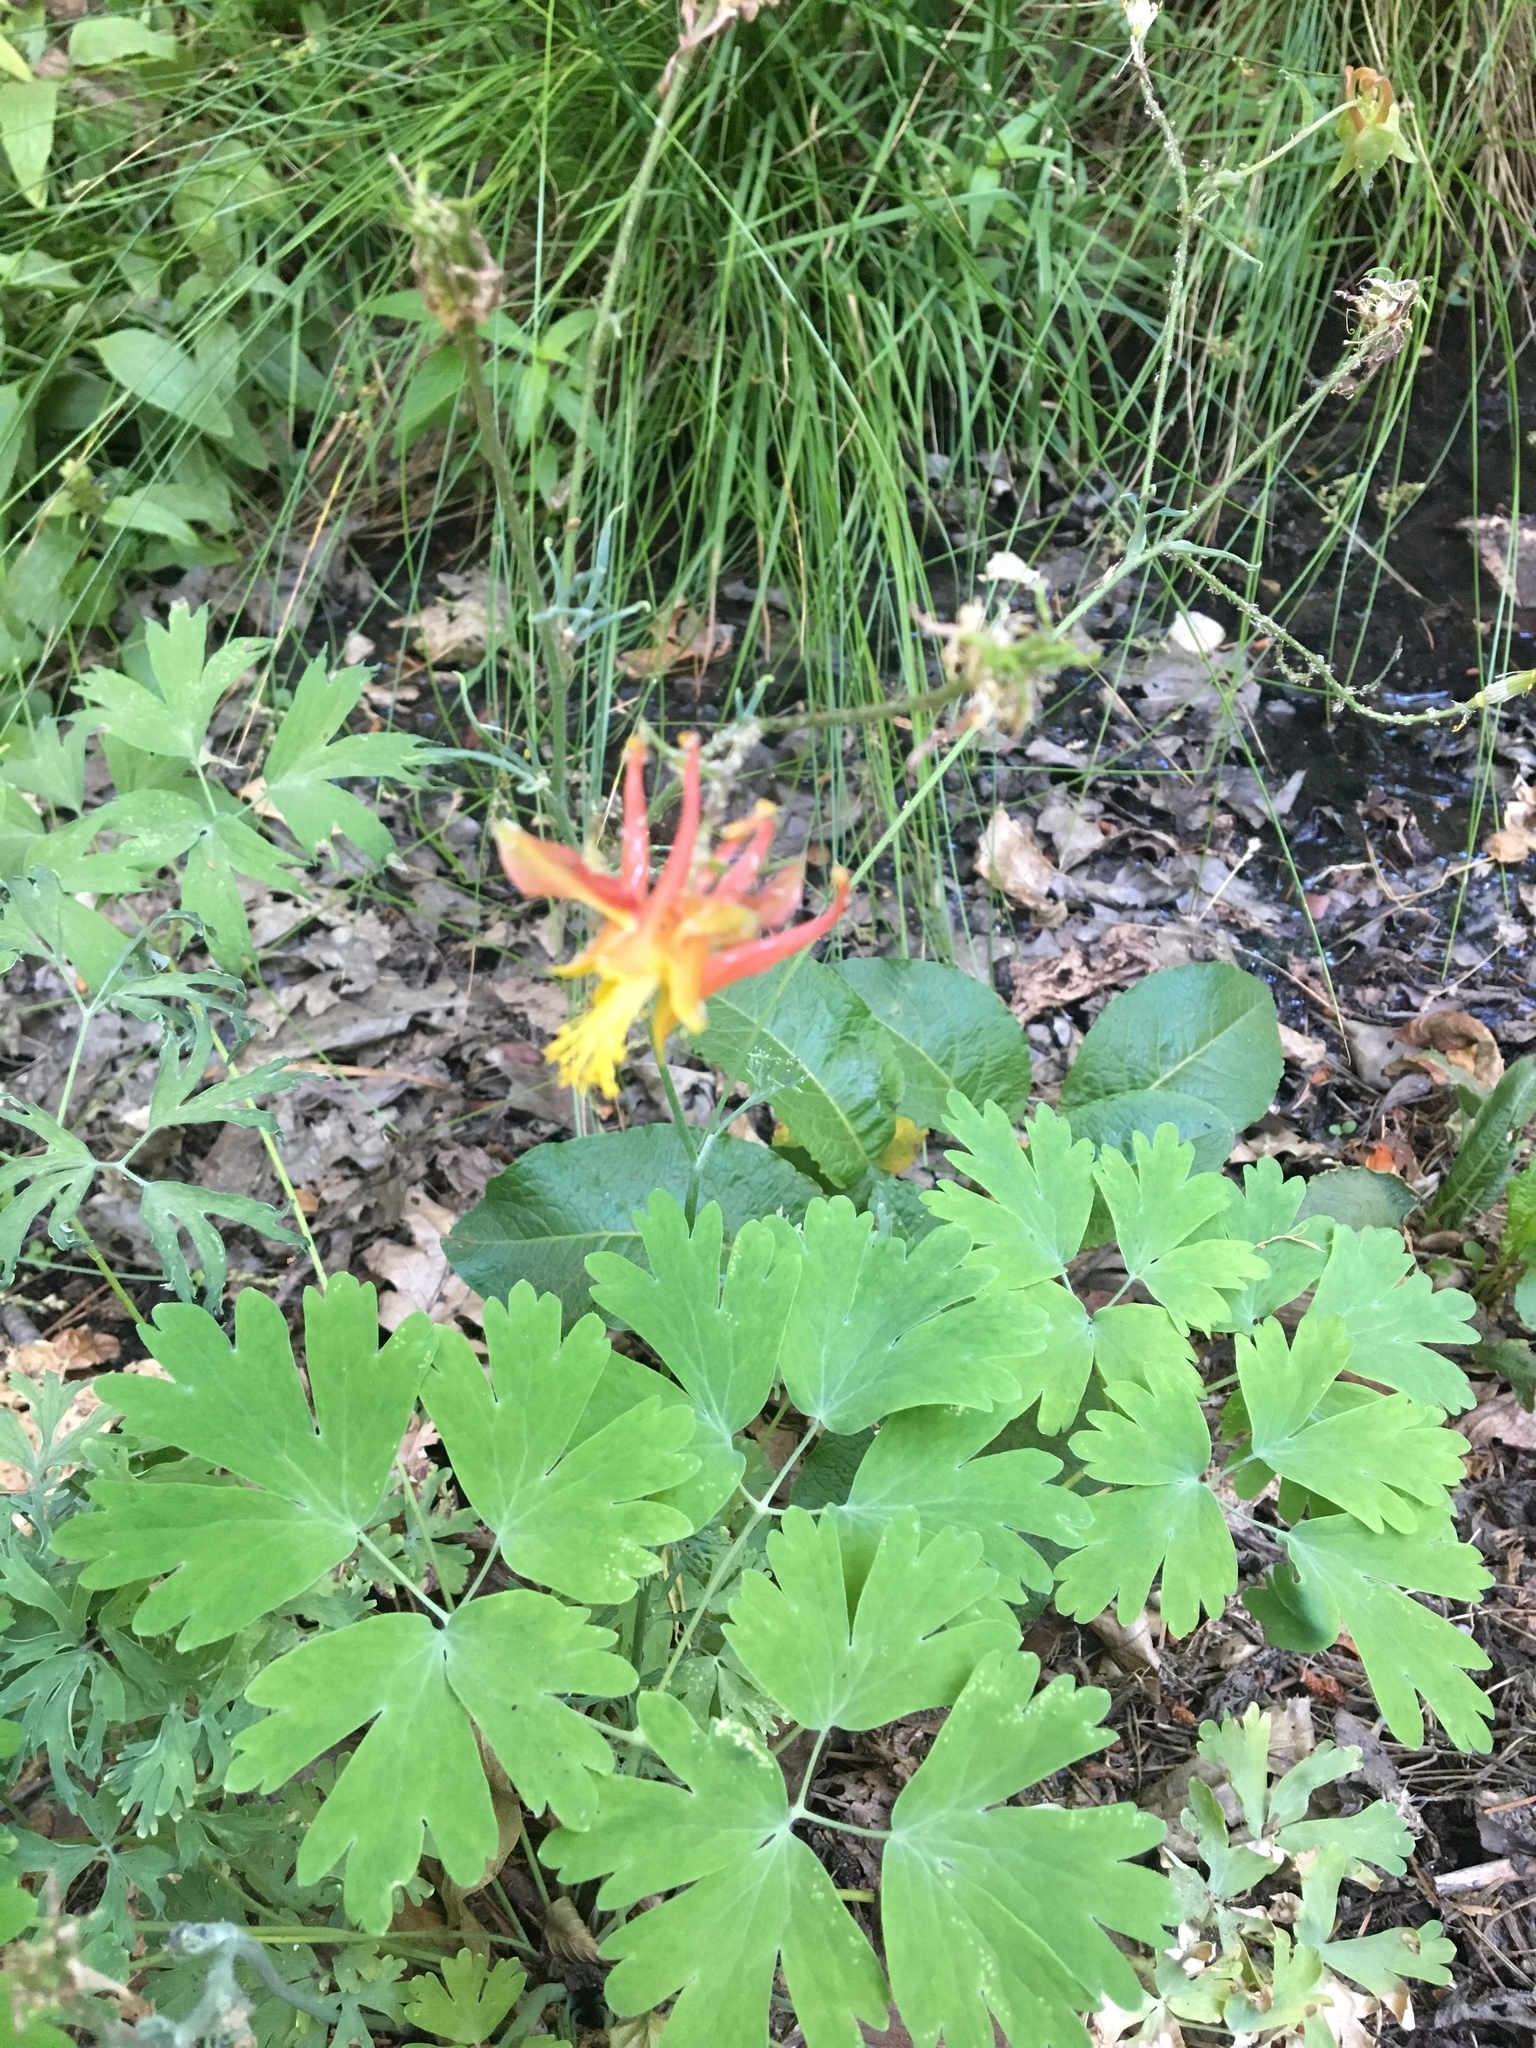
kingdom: Plantae
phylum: Tracheophyta
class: Magnoliopsida
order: Ranunculales
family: Ranunculaceae
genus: Aquilegia
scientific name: Aquilegia formosa
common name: Sitka columbine
